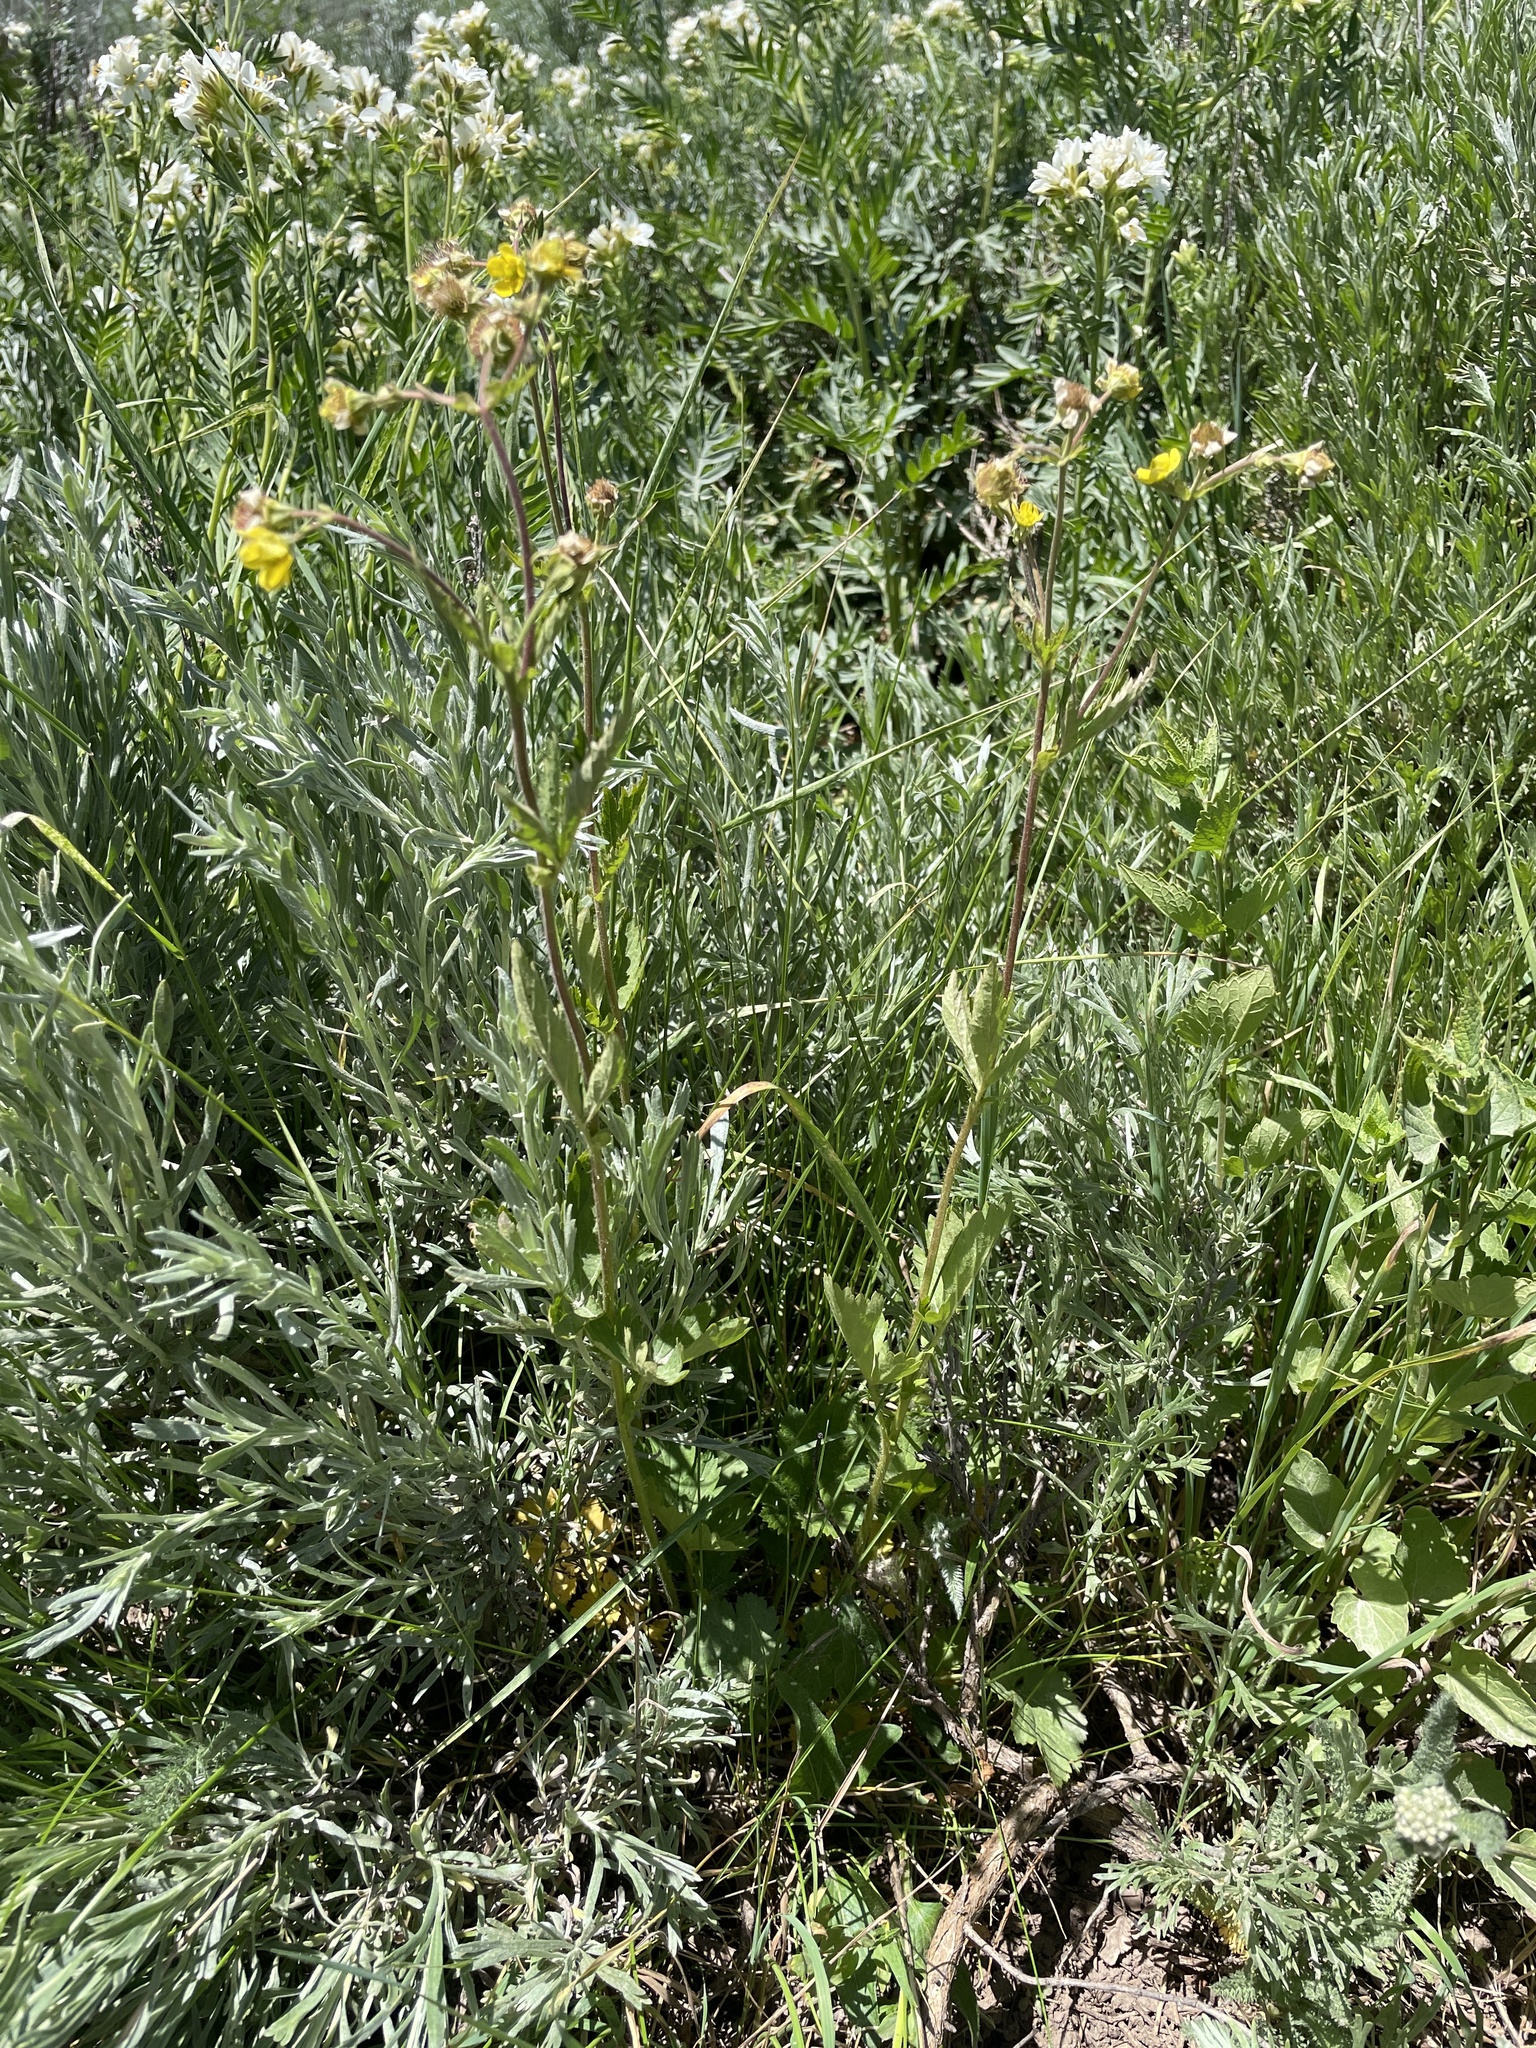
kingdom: Plantae
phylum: Tracheophyta
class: Magnoliopsida
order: Rosales
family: Rosaceae
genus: Geum
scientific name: Geum macrophyllum
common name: Large-leaved avens
